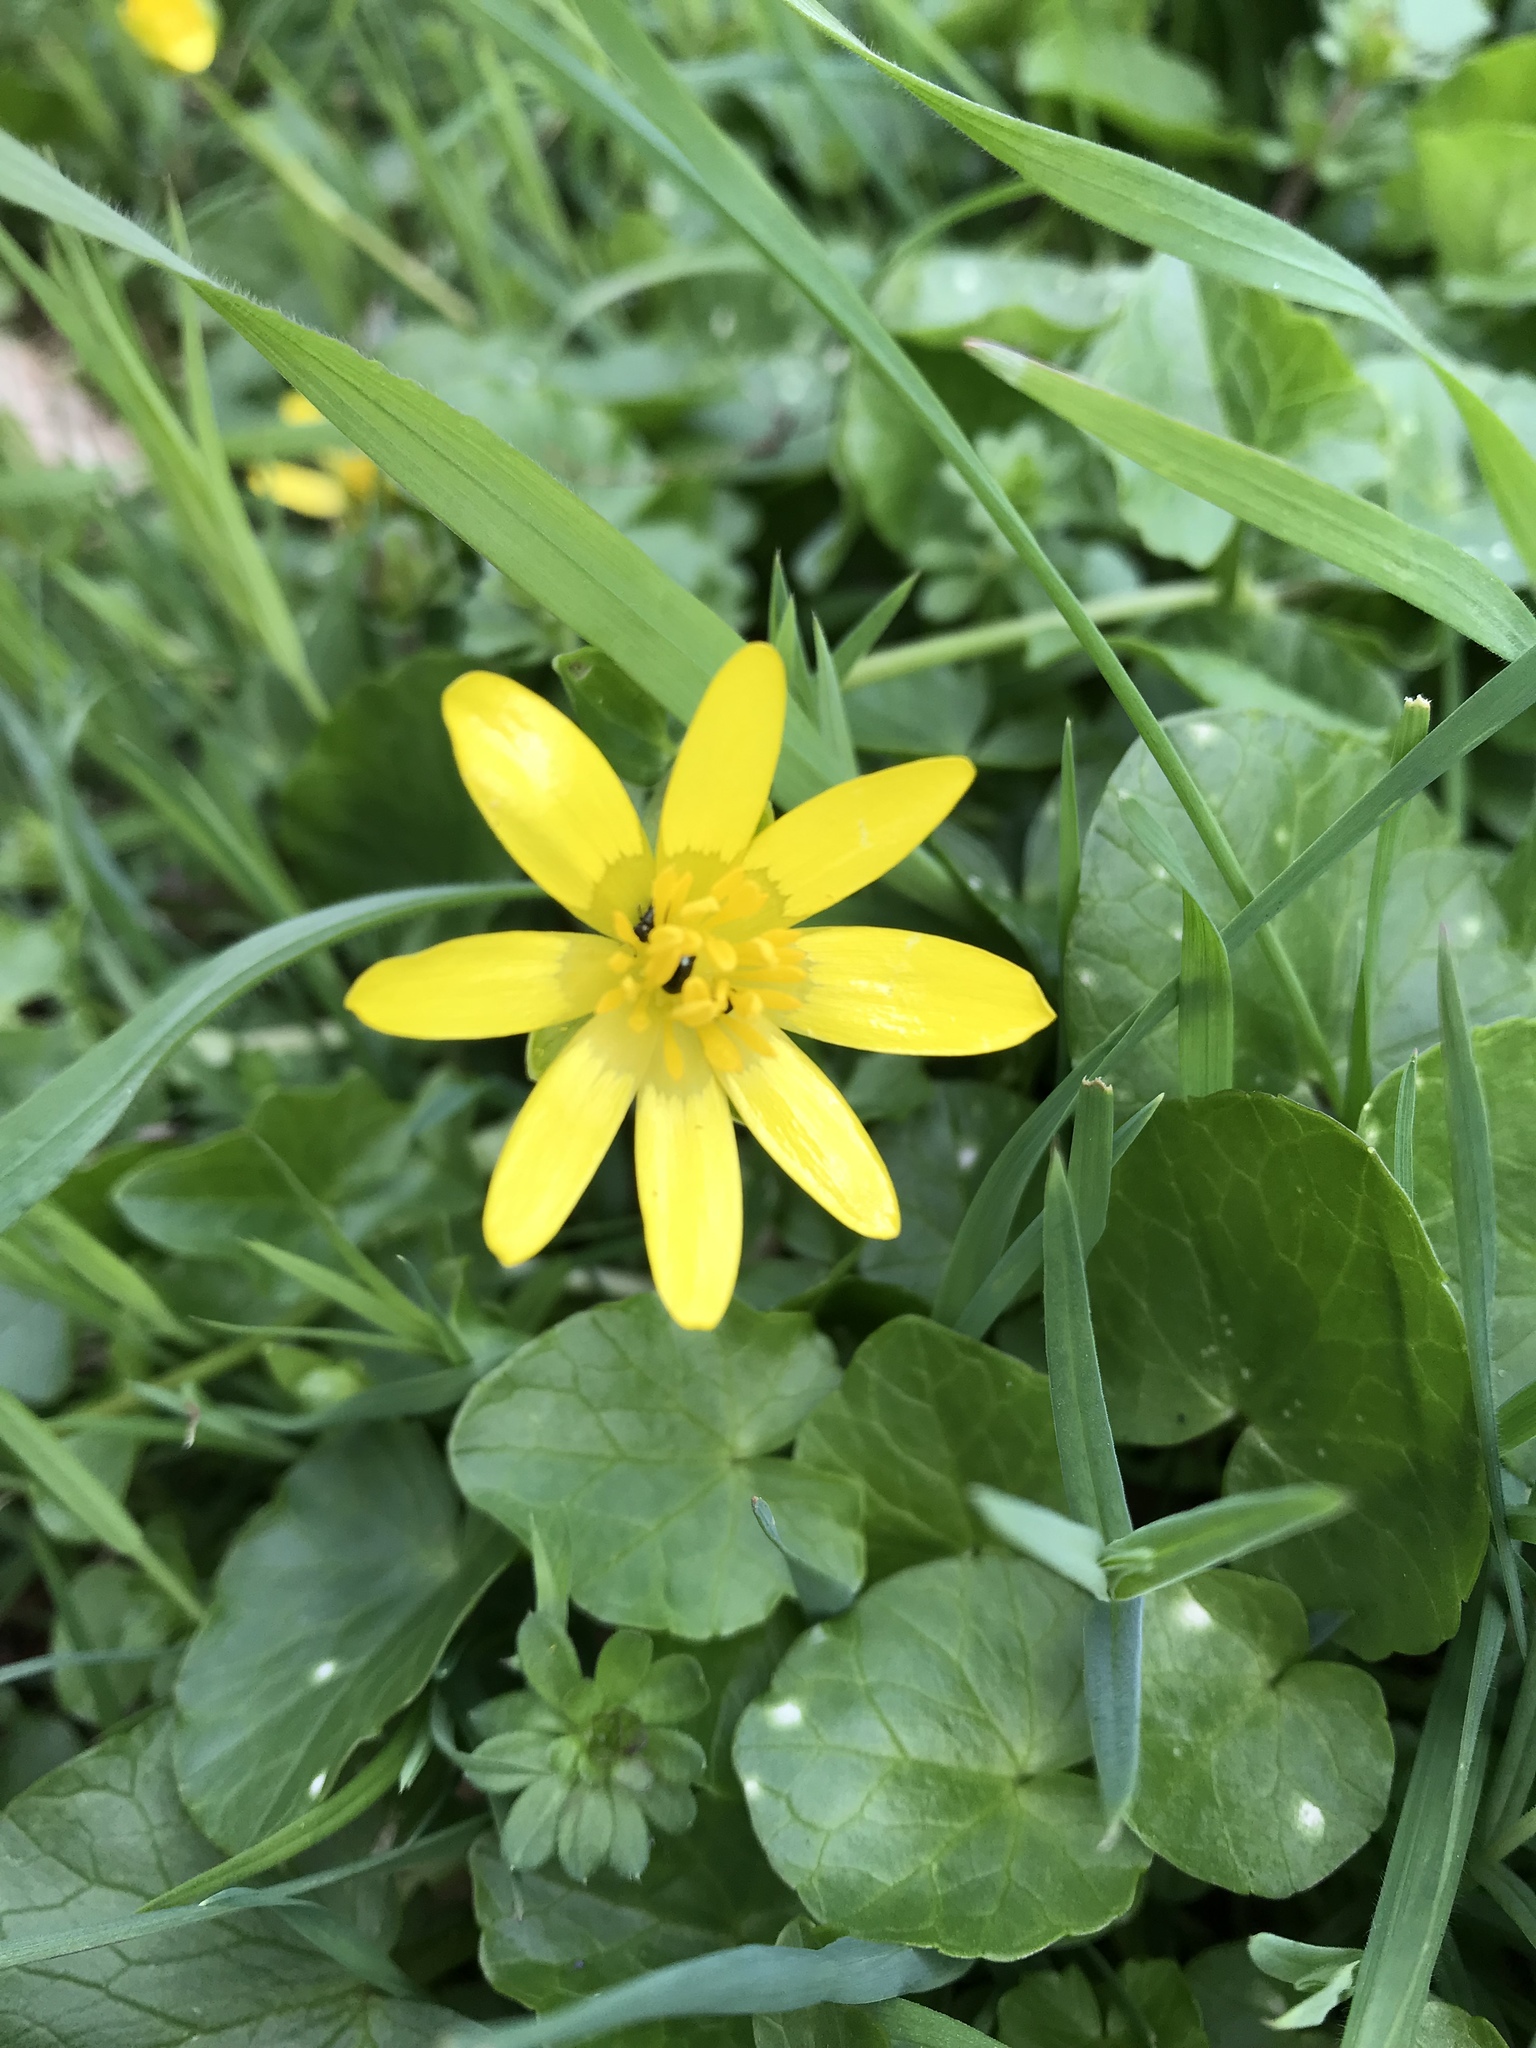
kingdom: Plantae
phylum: Tracheophyta
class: Magnoliopsida
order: Ranunculales
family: Ranunculaceae
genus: Ficaria
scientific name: Ficaria verna
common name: Lesser celandine
